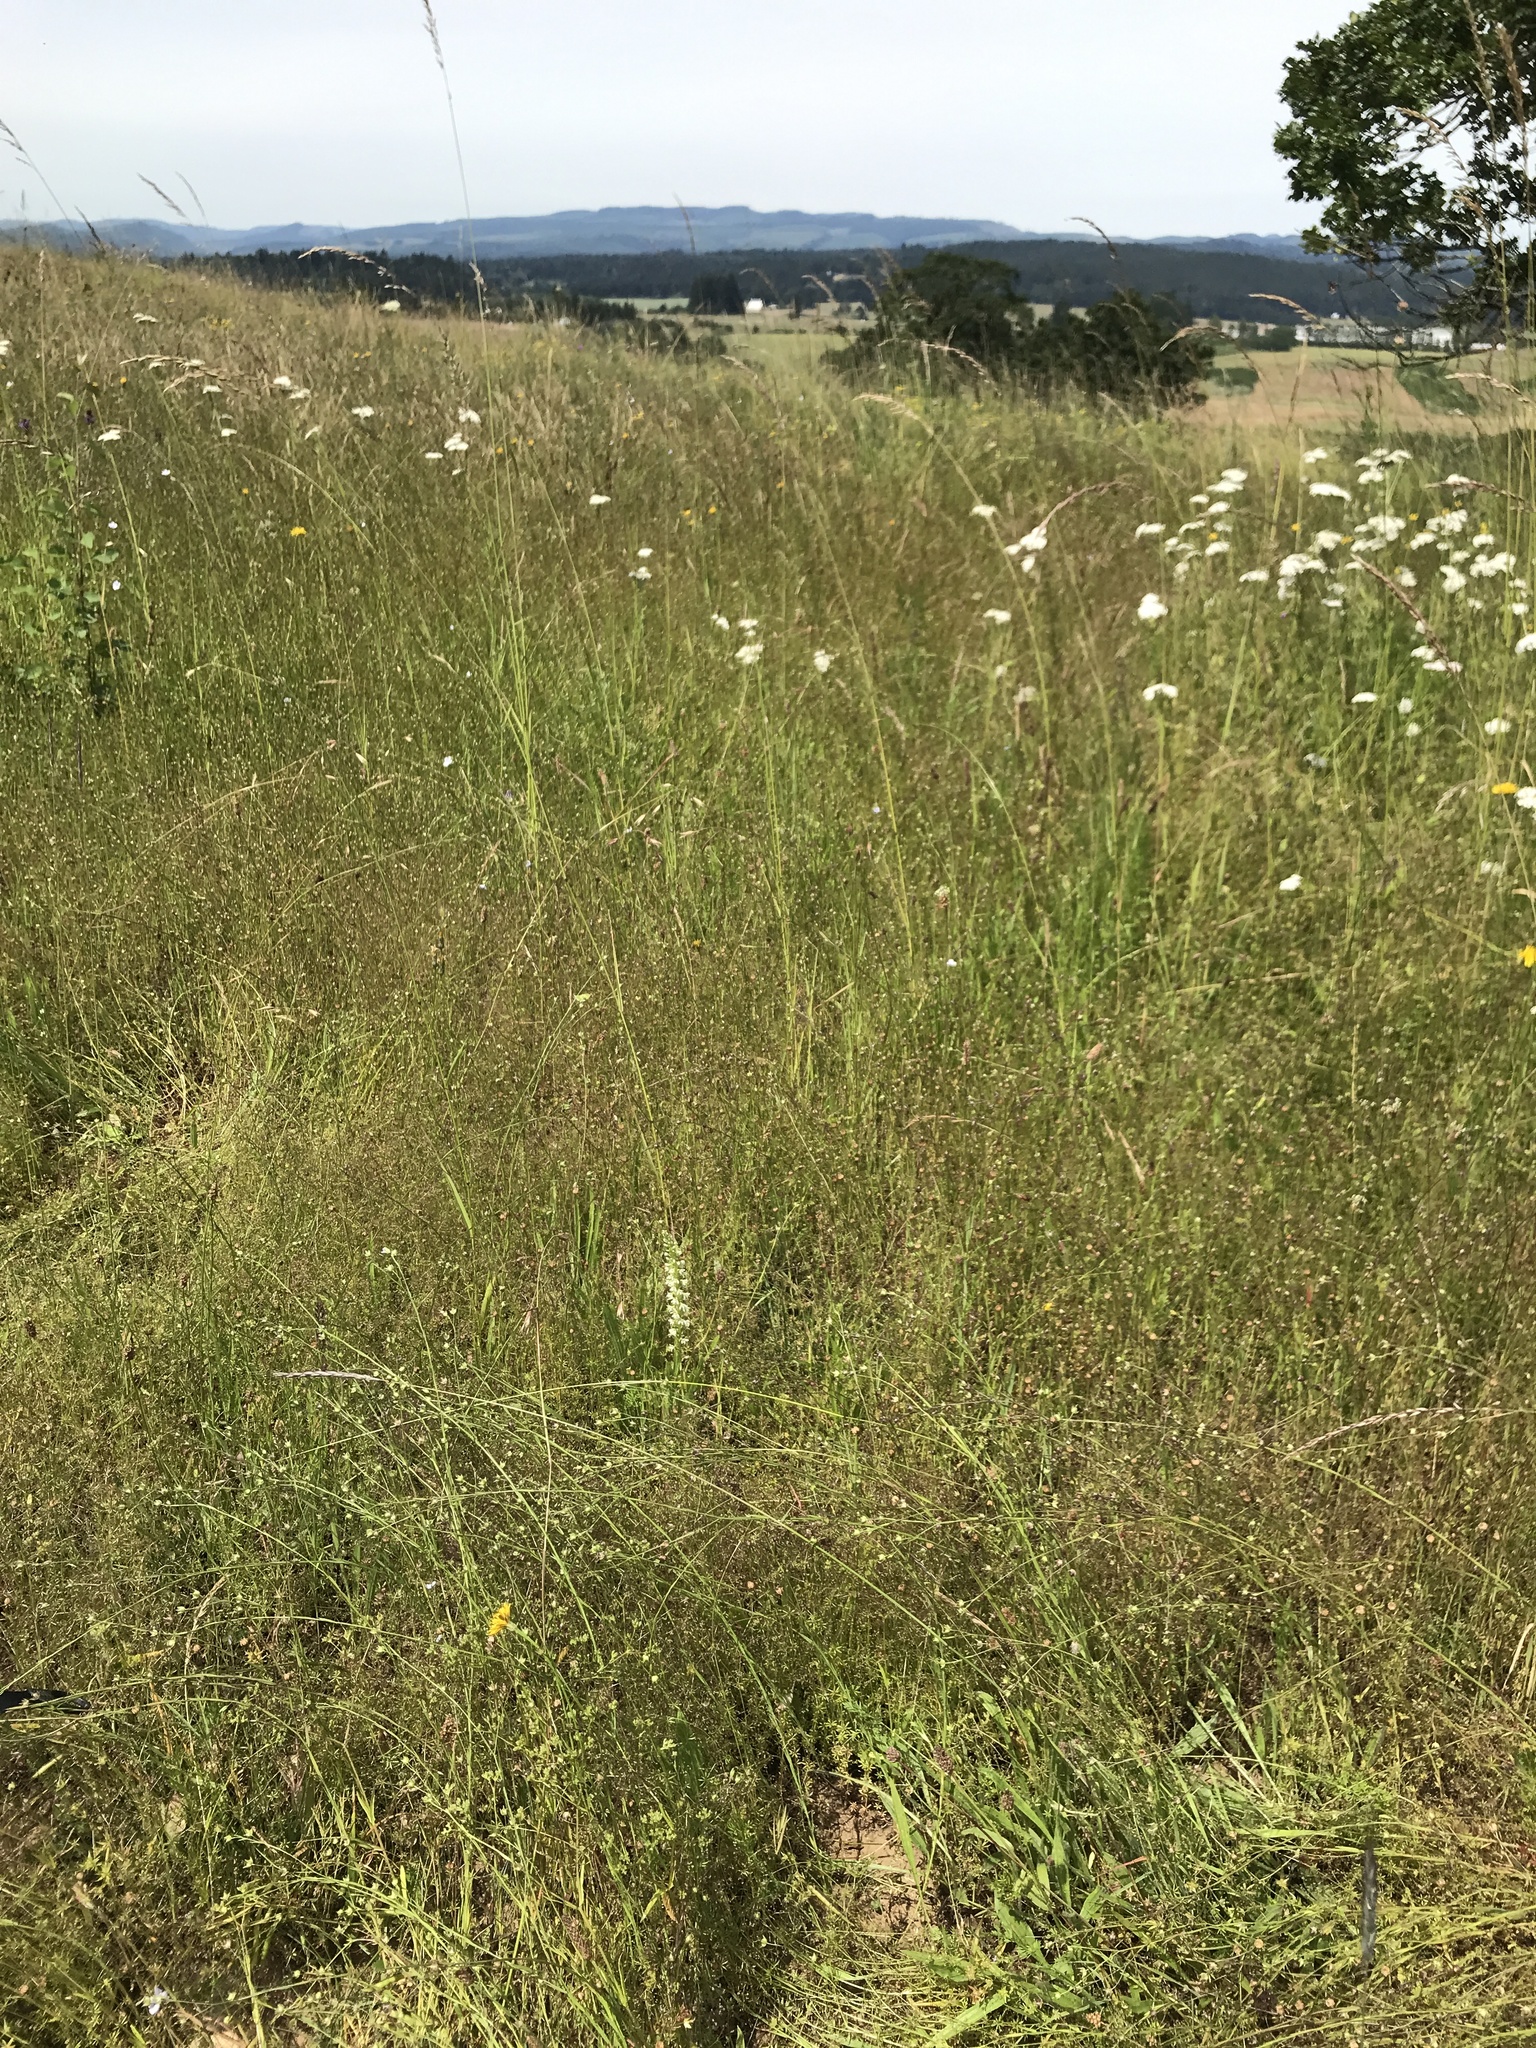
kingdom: Plantae
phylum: Tracheophyta
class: Liliopsida
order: Asparagales
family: Orchidaceae
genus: Platanthera
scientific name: Platanthera elegans
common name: Coast piperia
